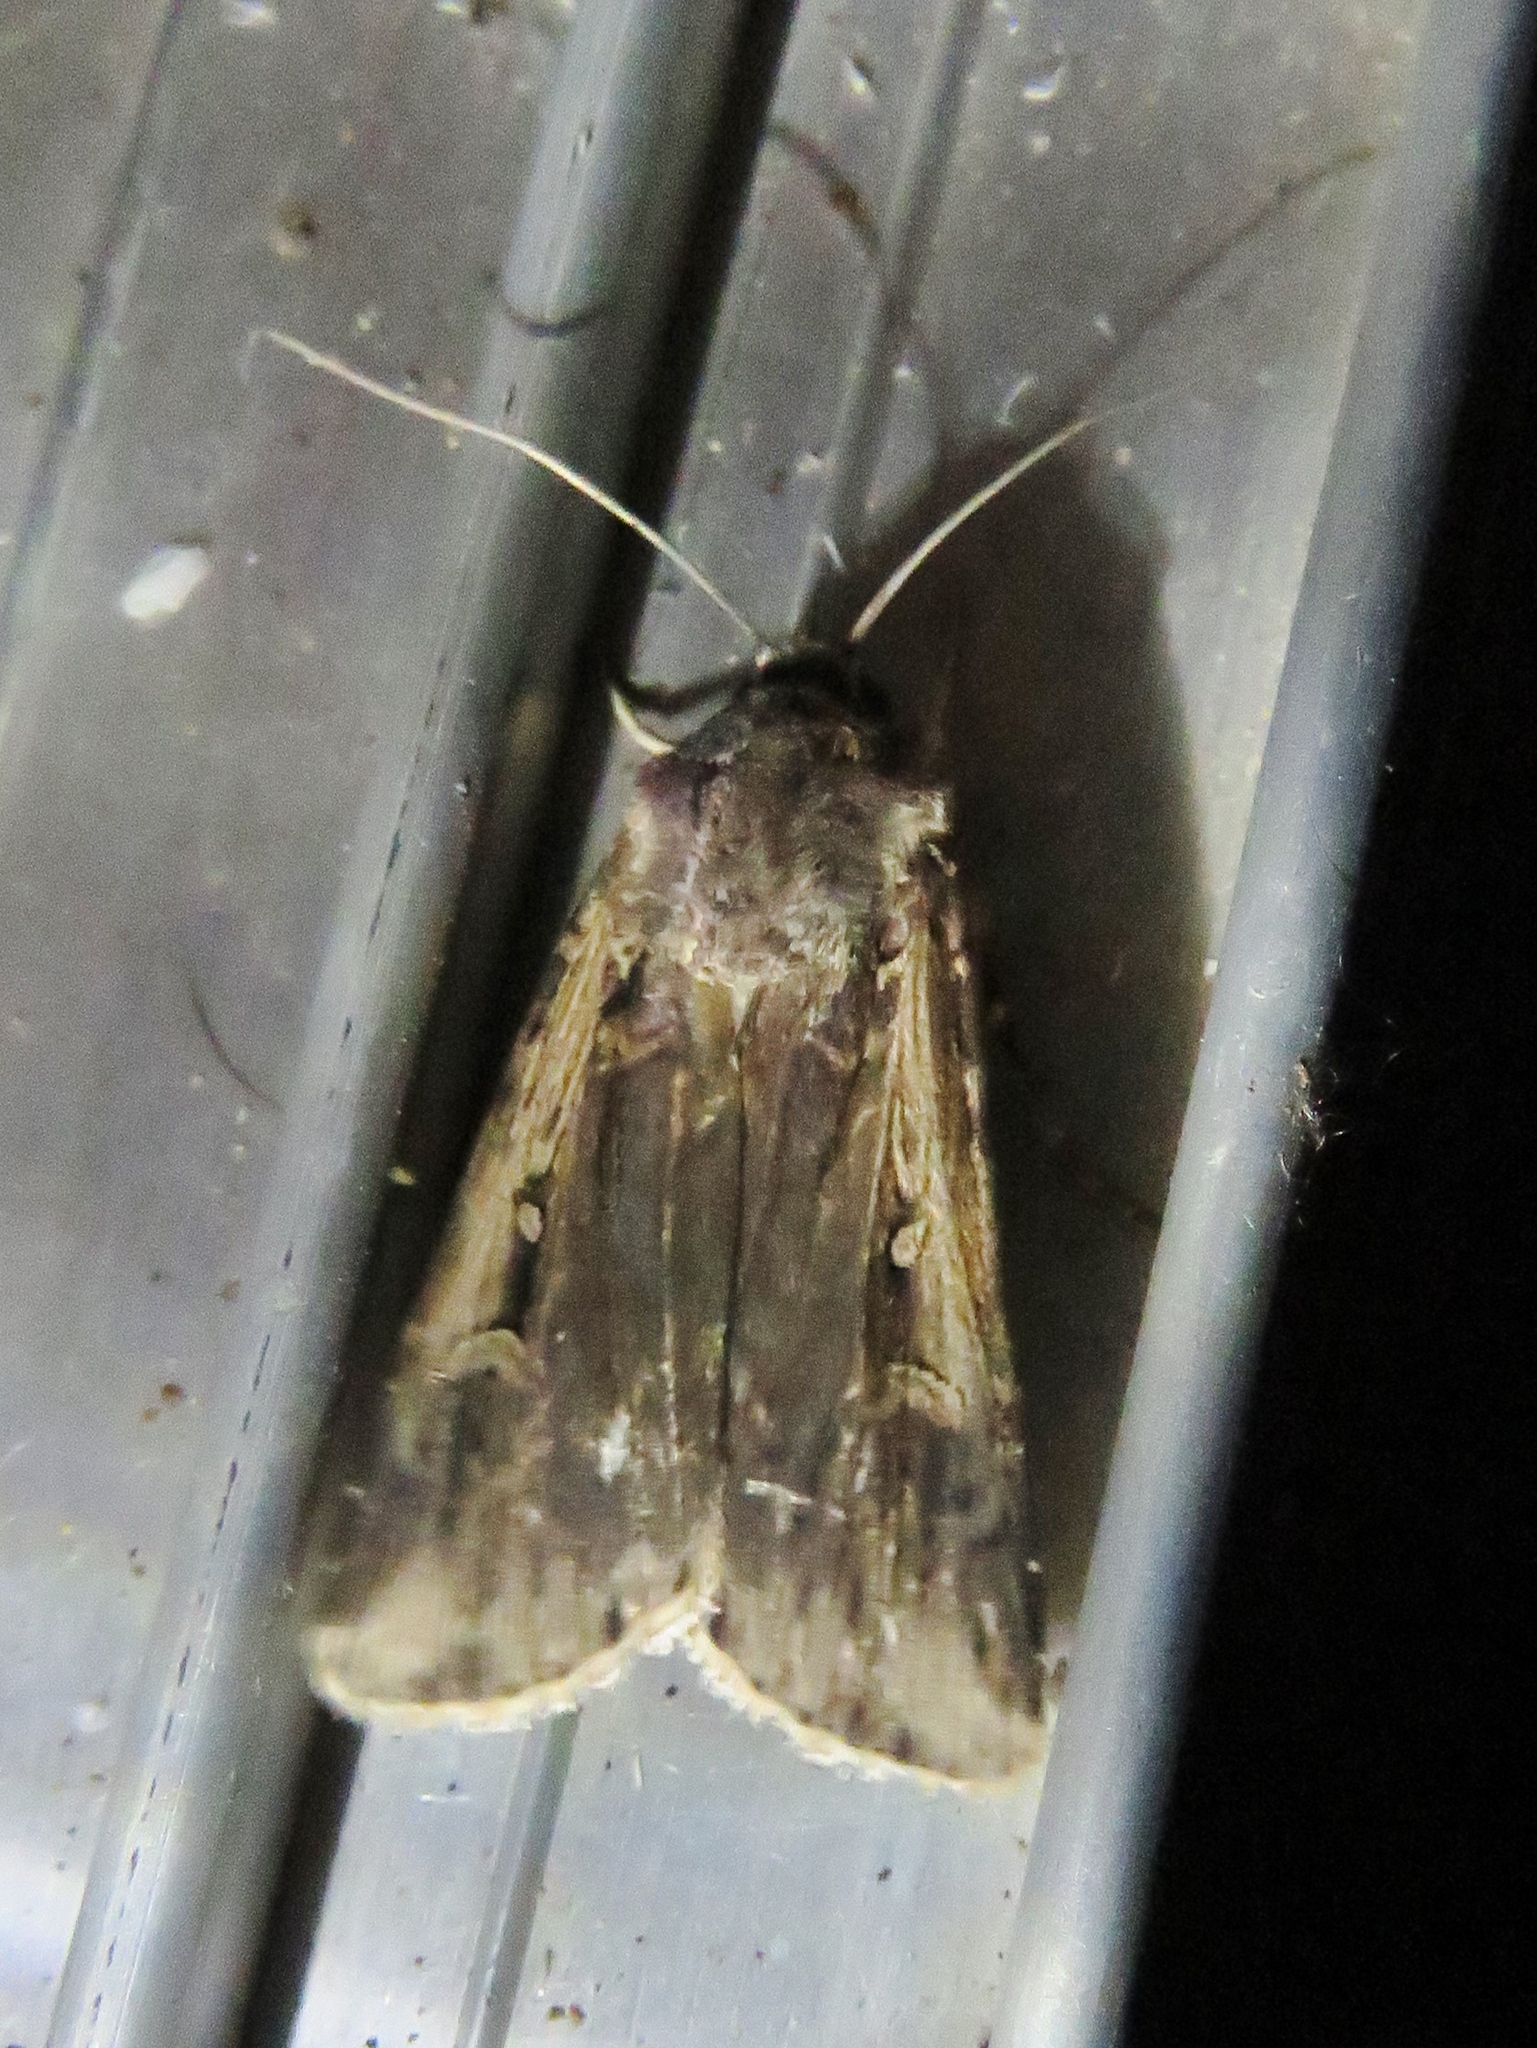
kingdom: Animalia
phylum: Arthropoda
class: Insecta
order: Lepidoptera
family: Noctuidae
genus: Feltia
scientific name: Feltia subterranea
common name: Granulate cutworm
